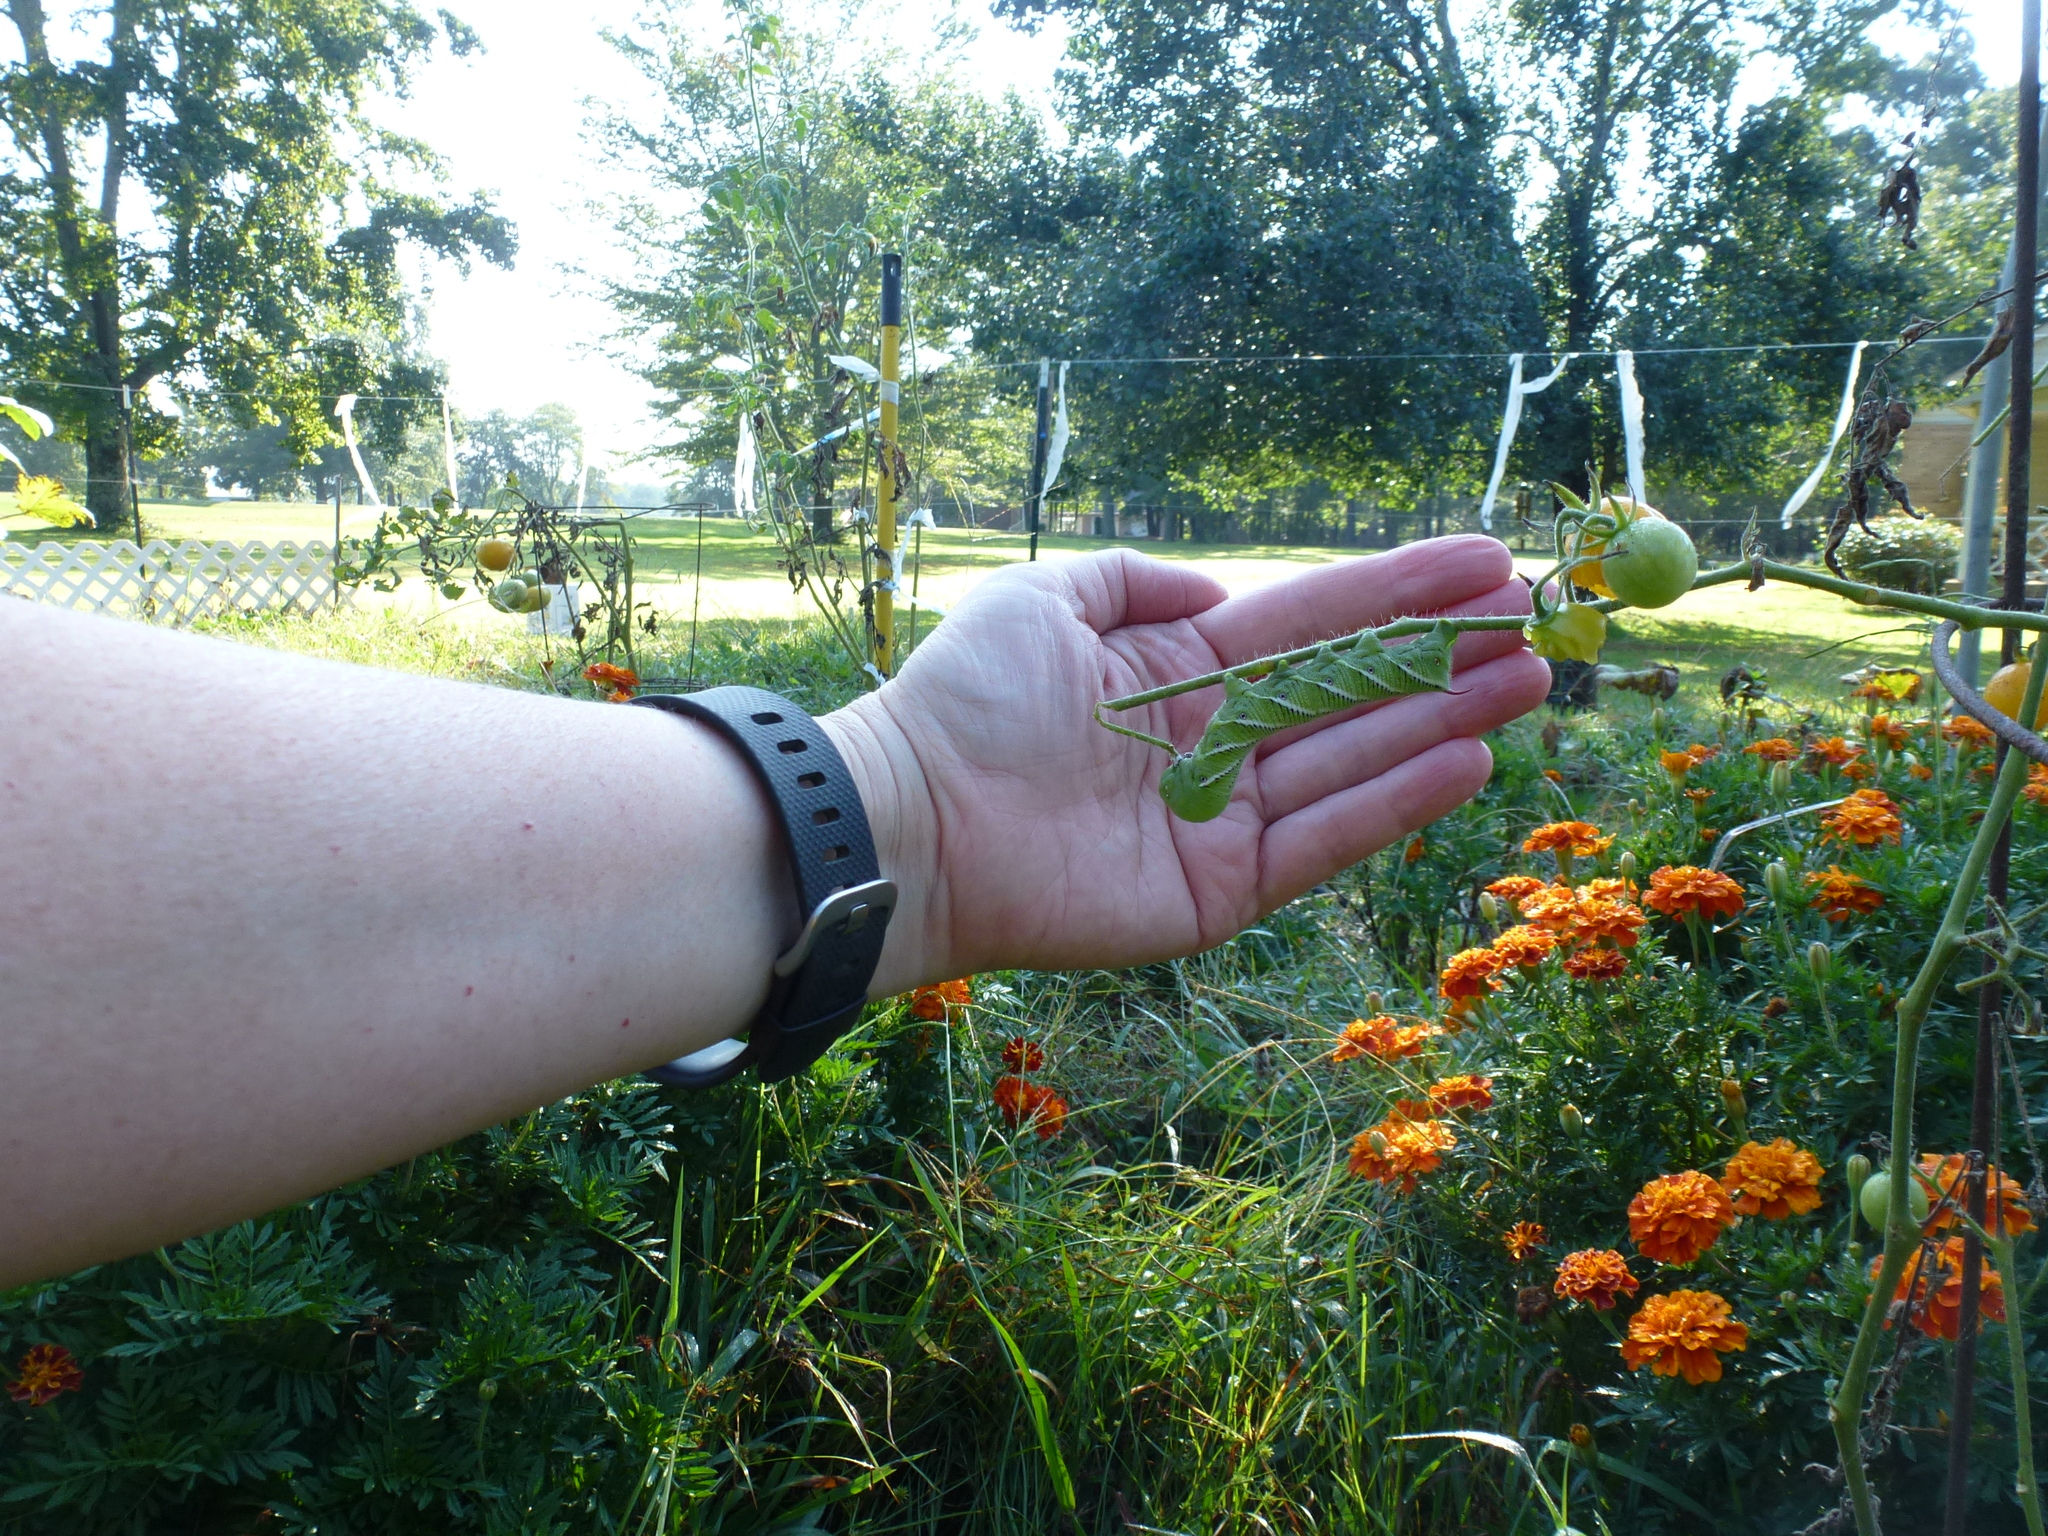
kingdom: Animalia
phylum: Arthropoda
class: Insecta
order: Lepidoptera
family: Sphingidae
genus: Manduca
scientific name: Manduca sexta
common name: Carolina sphinx
